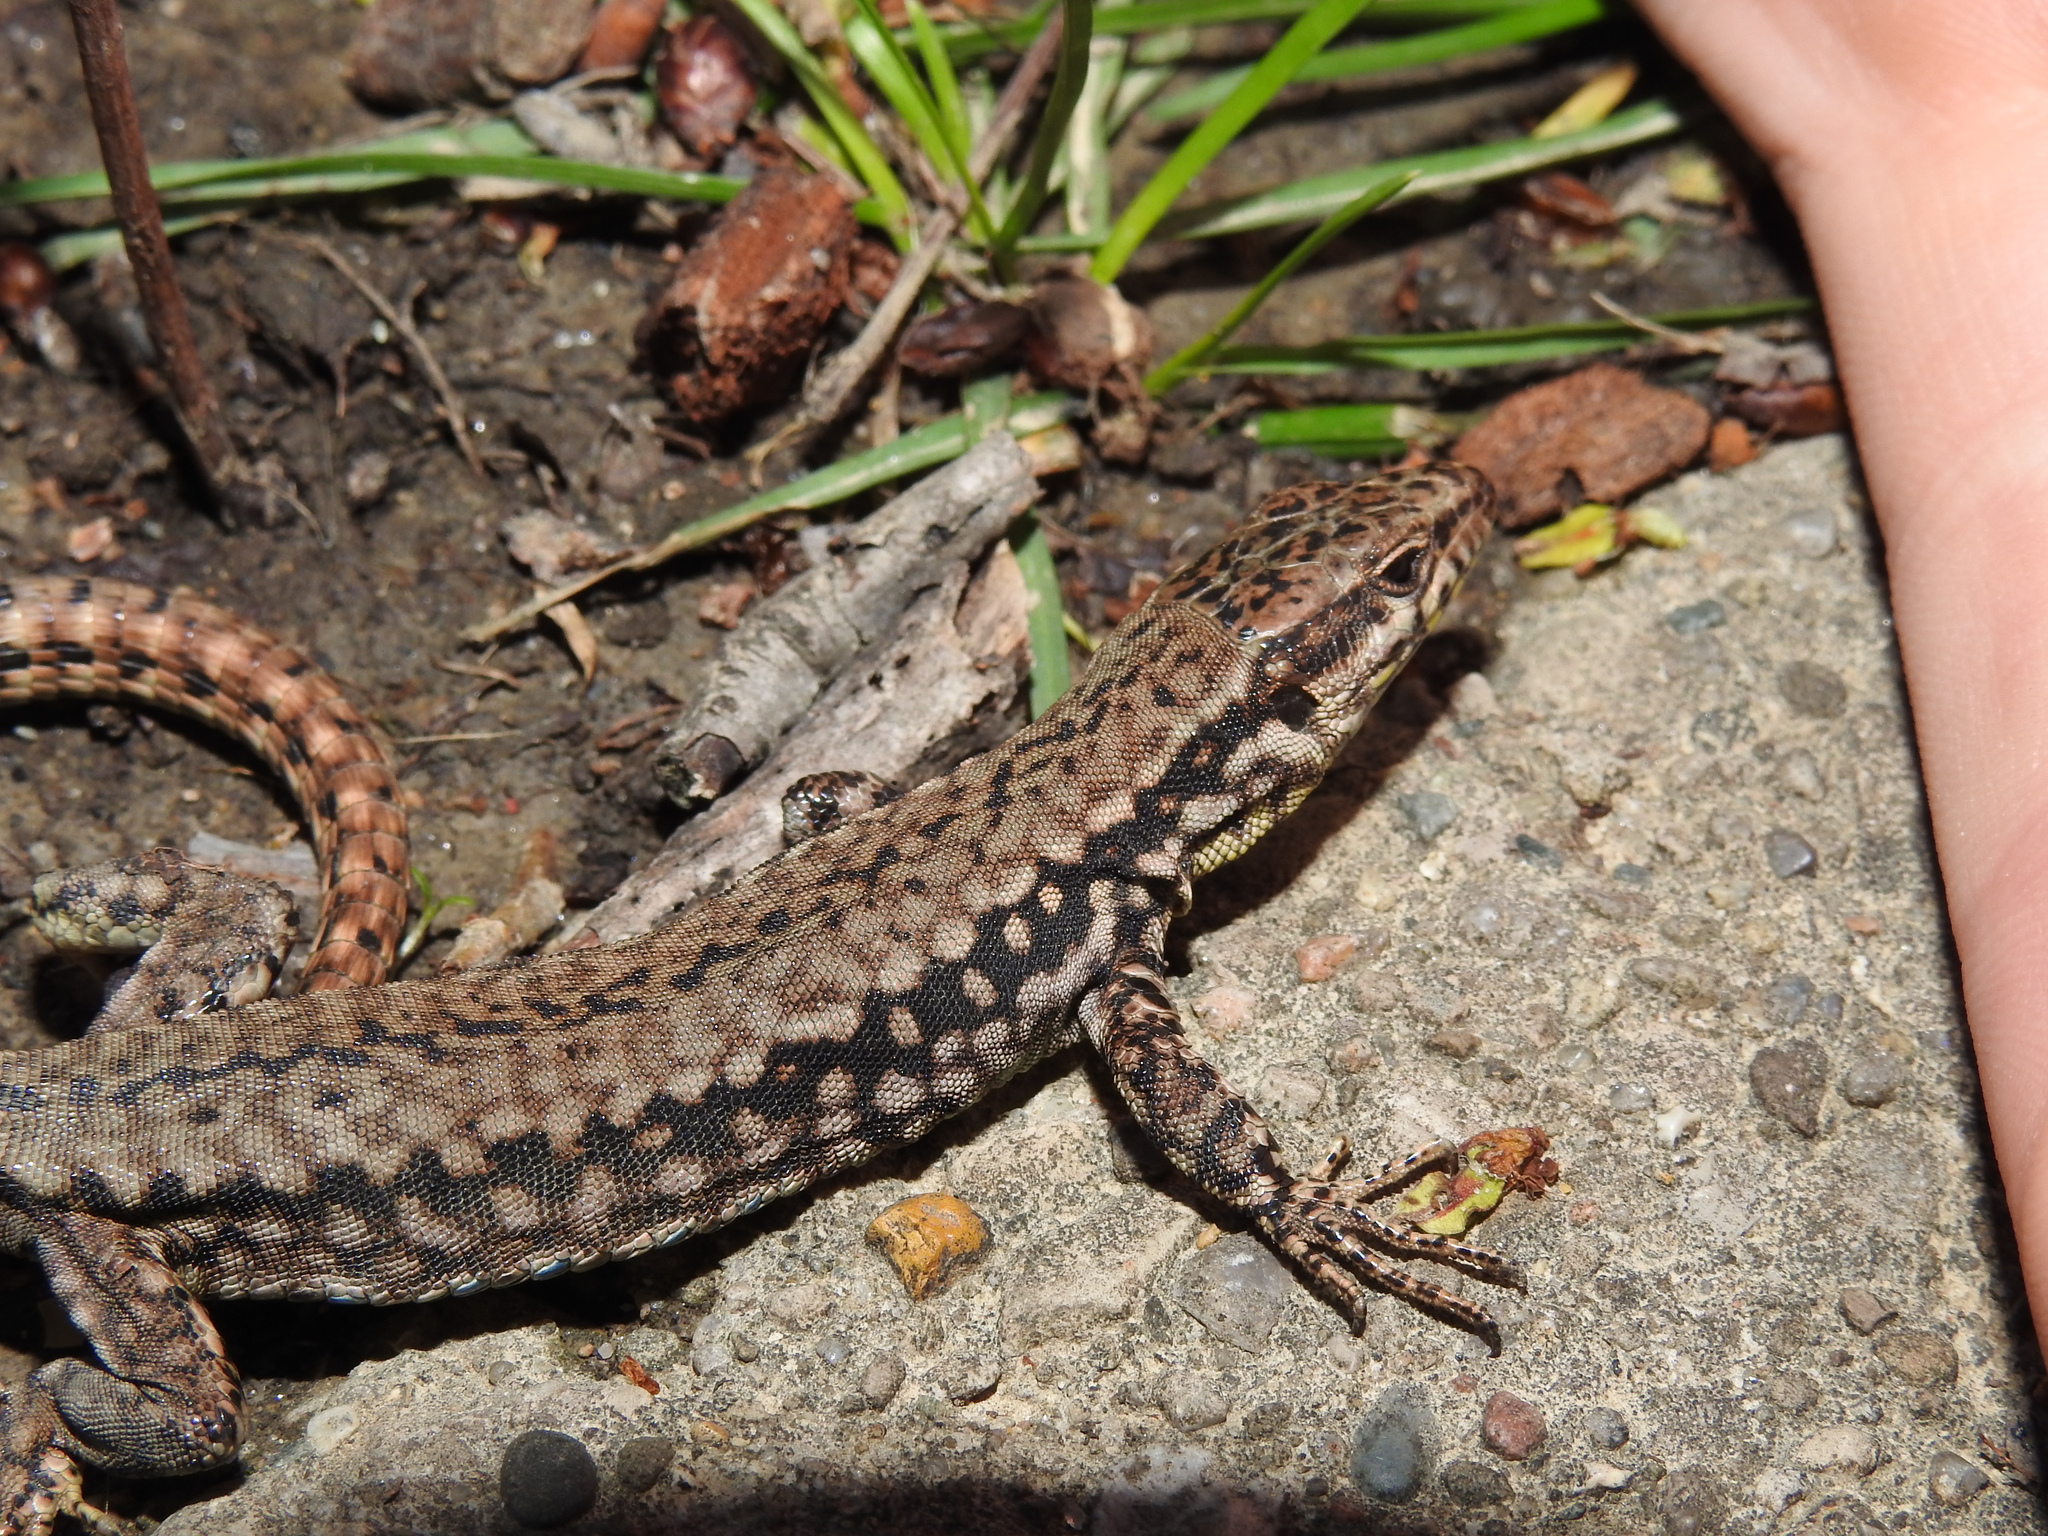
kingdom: Animalia
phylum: Chordata
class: Squamata
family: Lacertidae
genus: Podarcis
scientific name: Podarcis muralis
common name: Common wall lizard
